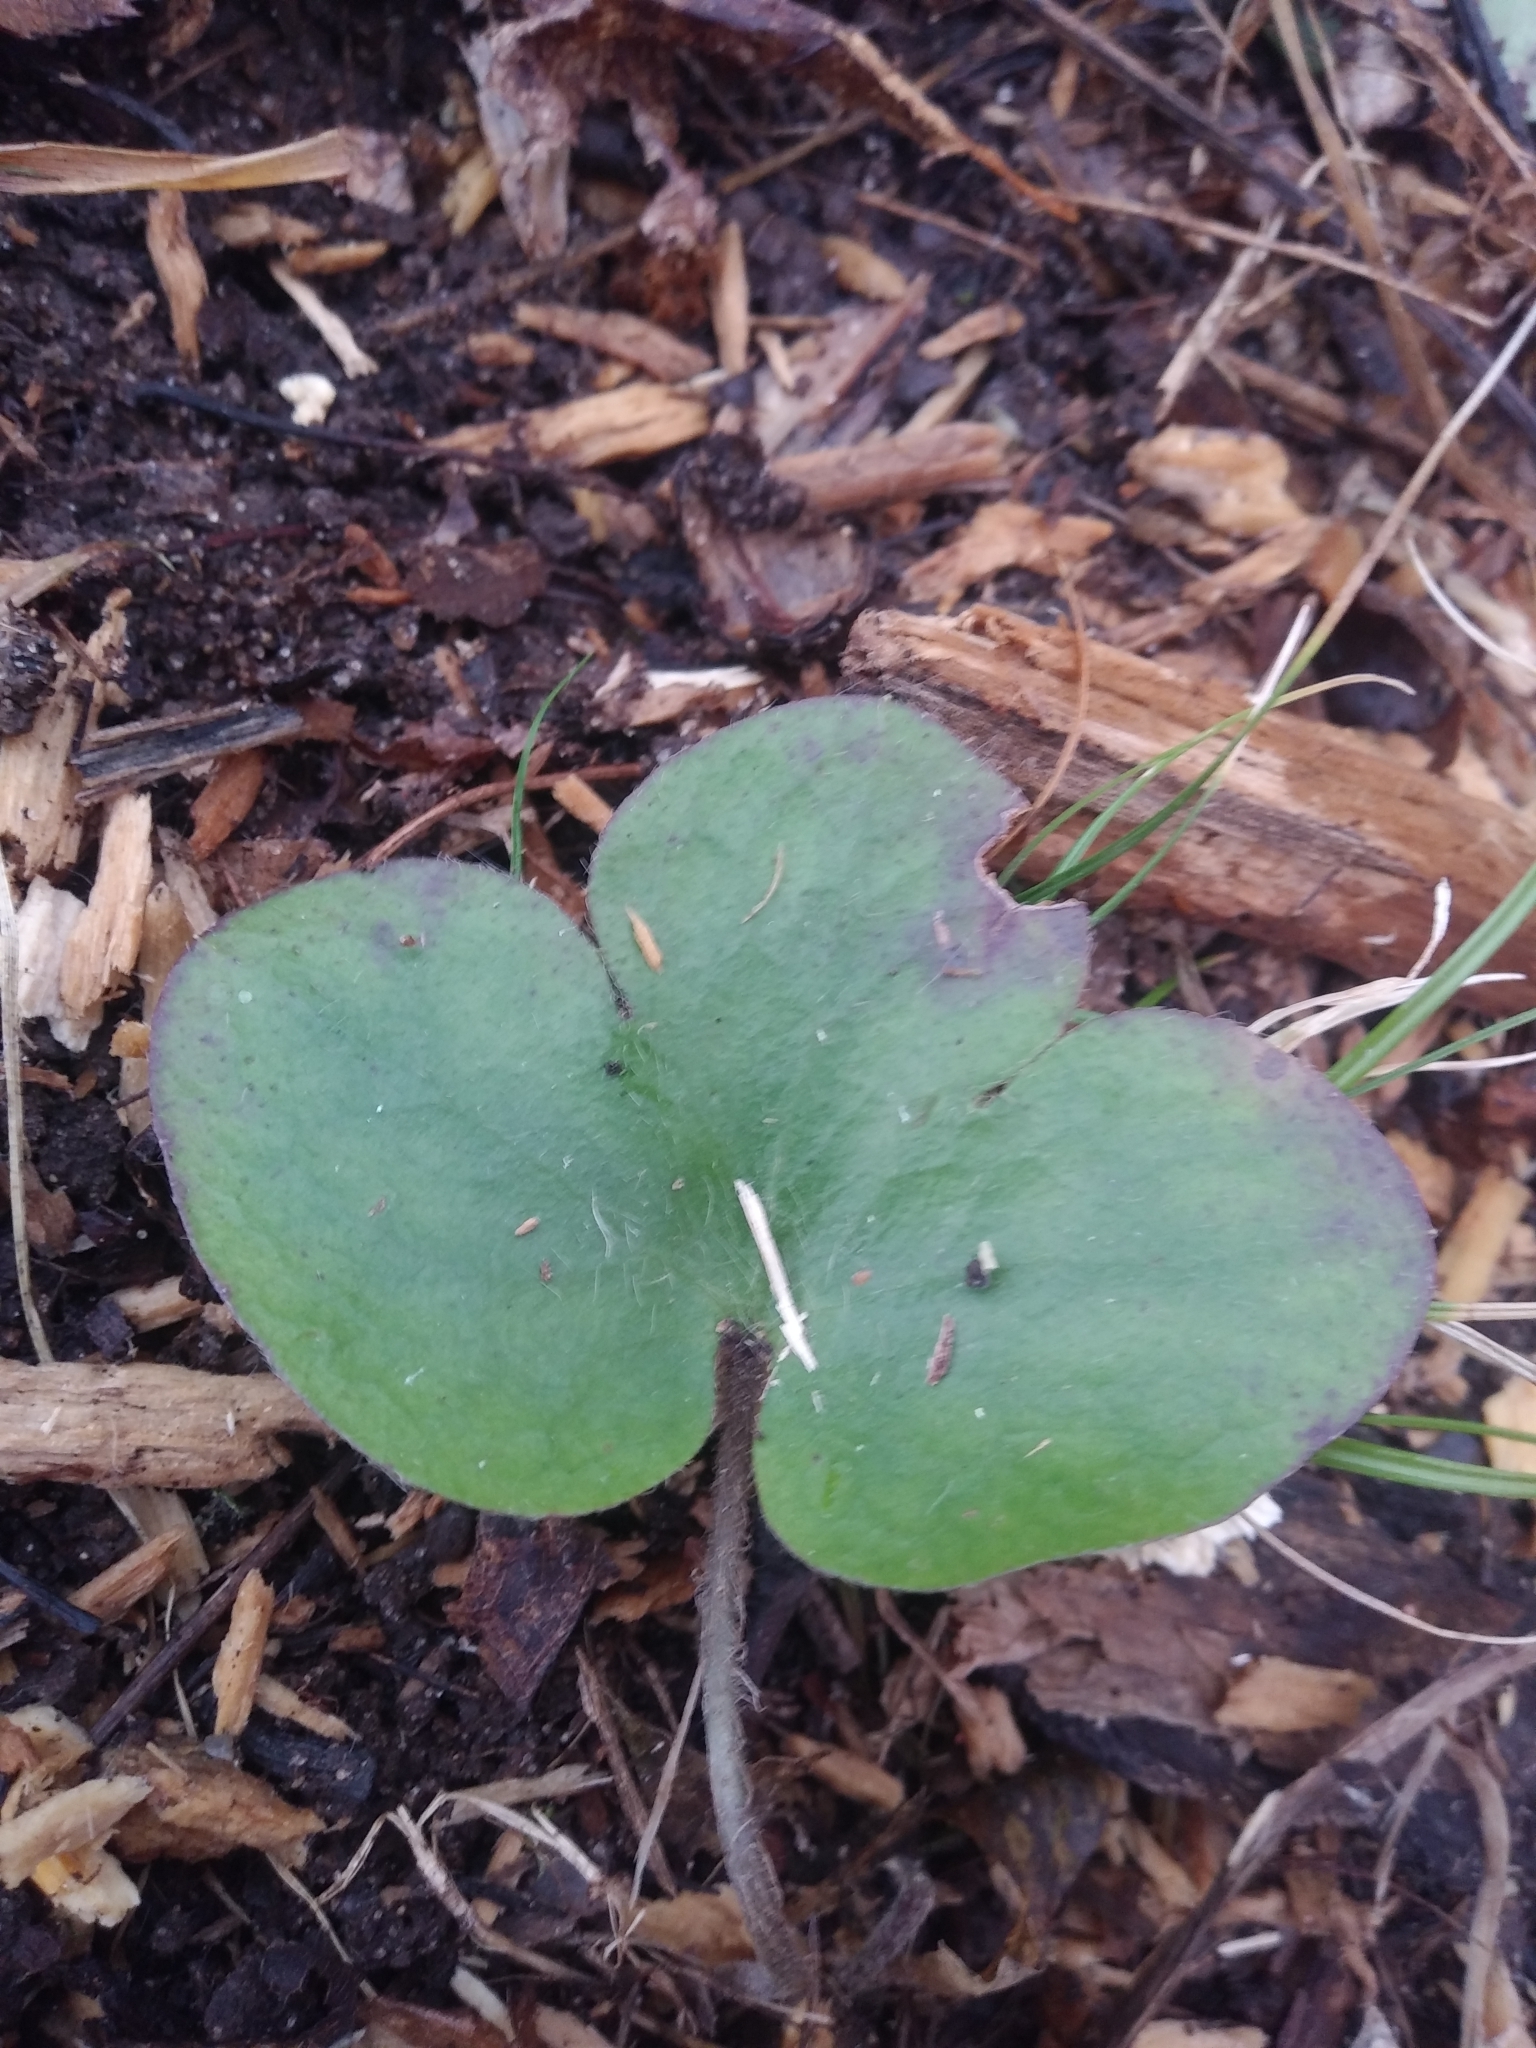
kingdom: Plantae
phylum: Tracheophyta
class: Magnoliopsida
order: Ranunculales
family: Ranunculaceae
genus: Hepatica
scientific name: Hepatica americana
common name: American hepatica
